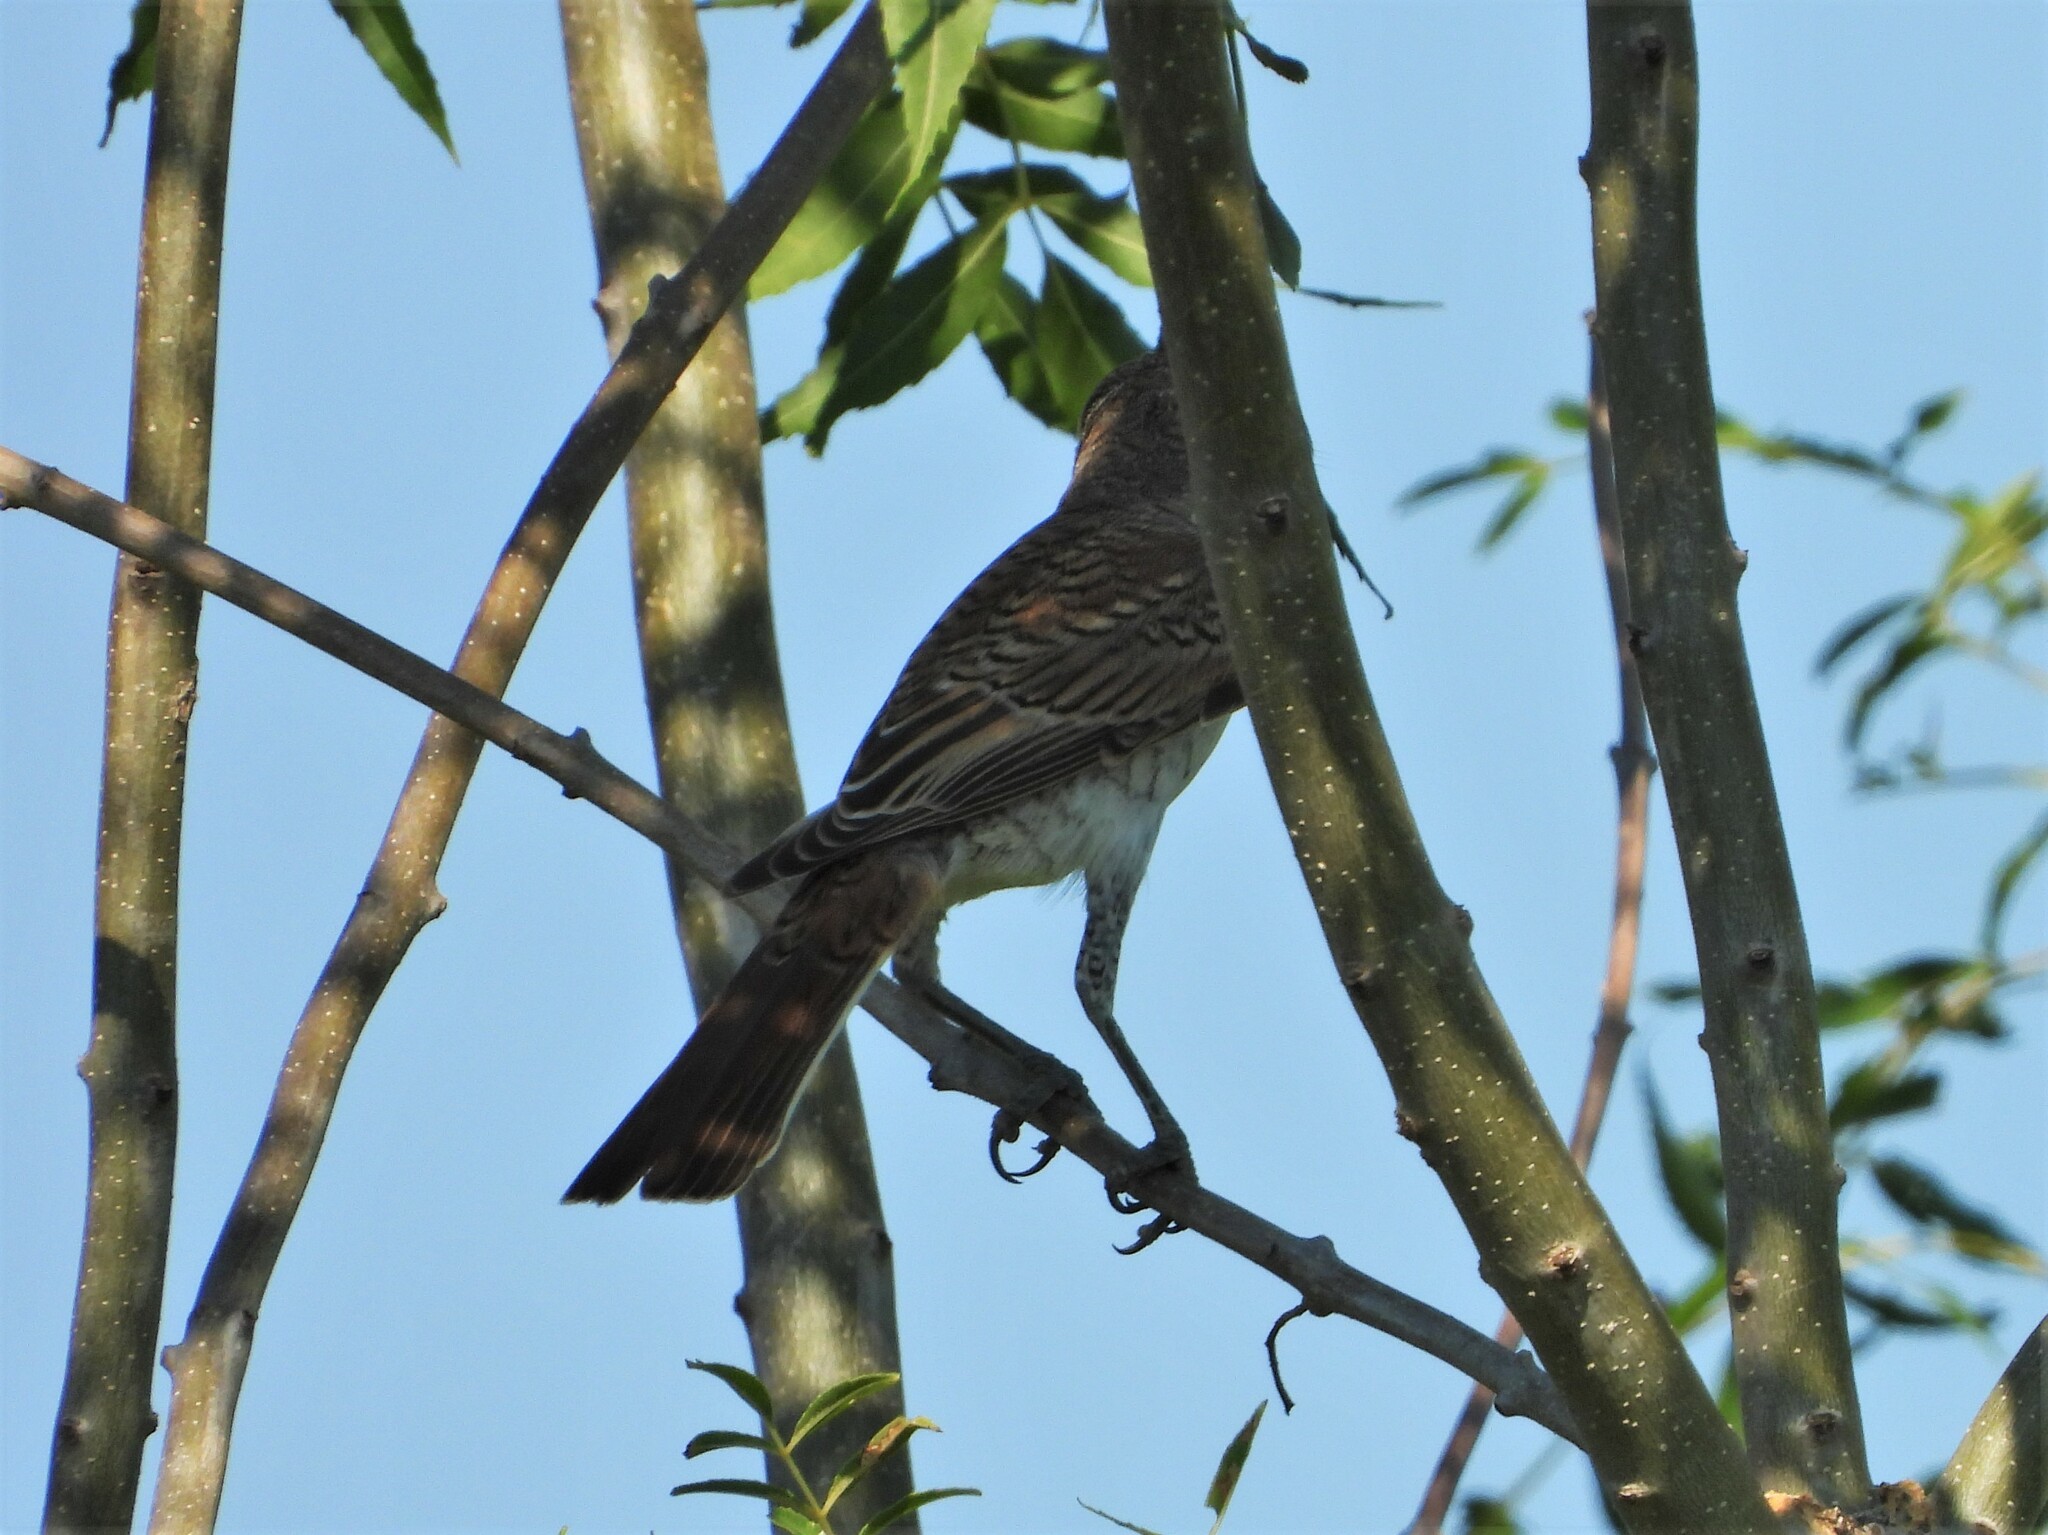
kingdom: Animalia
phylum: Chordata
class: Aves
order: Passeriformes
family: Laniidae
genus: Lanius
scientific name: Lanius collurio
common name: Red-backed shrike
